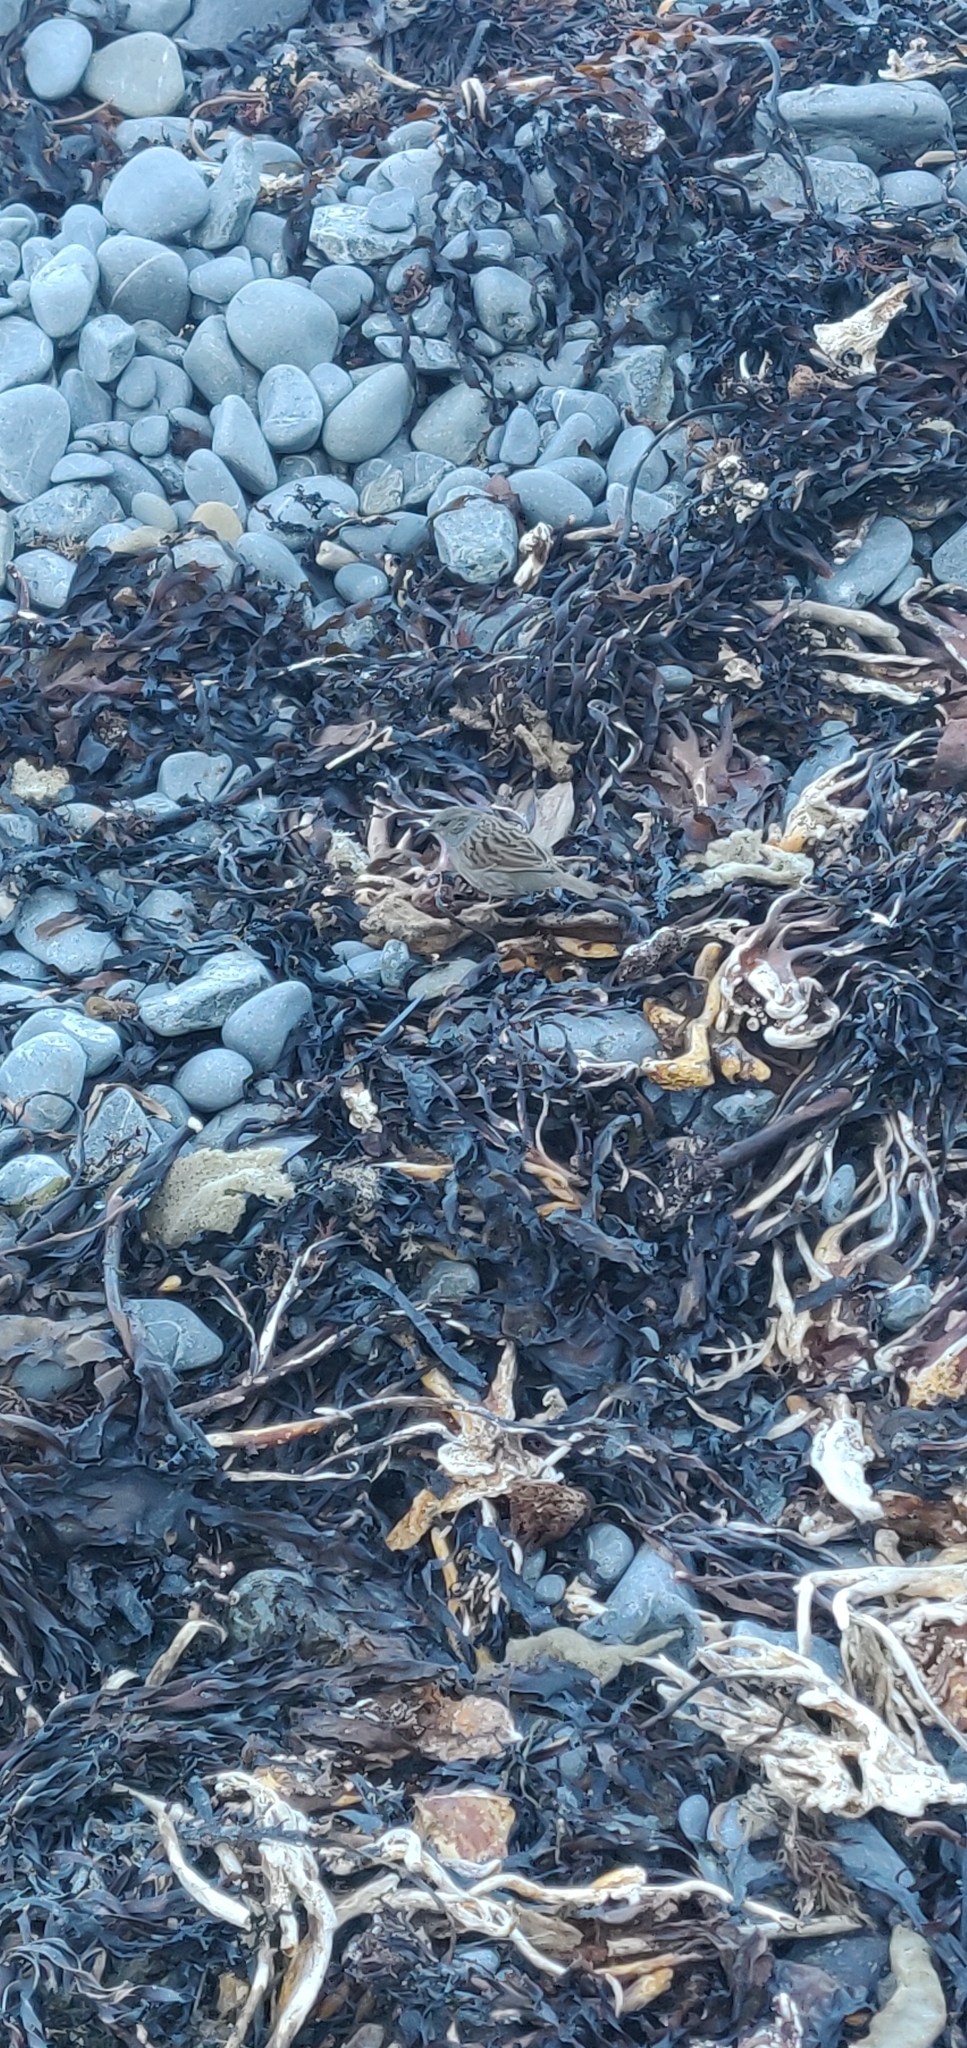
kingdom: Animalia
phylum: Chordata
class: Aves
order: Passeriformes
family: Prunellidae
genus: Prunella
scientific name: Prunella modularis
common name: Dunnock
